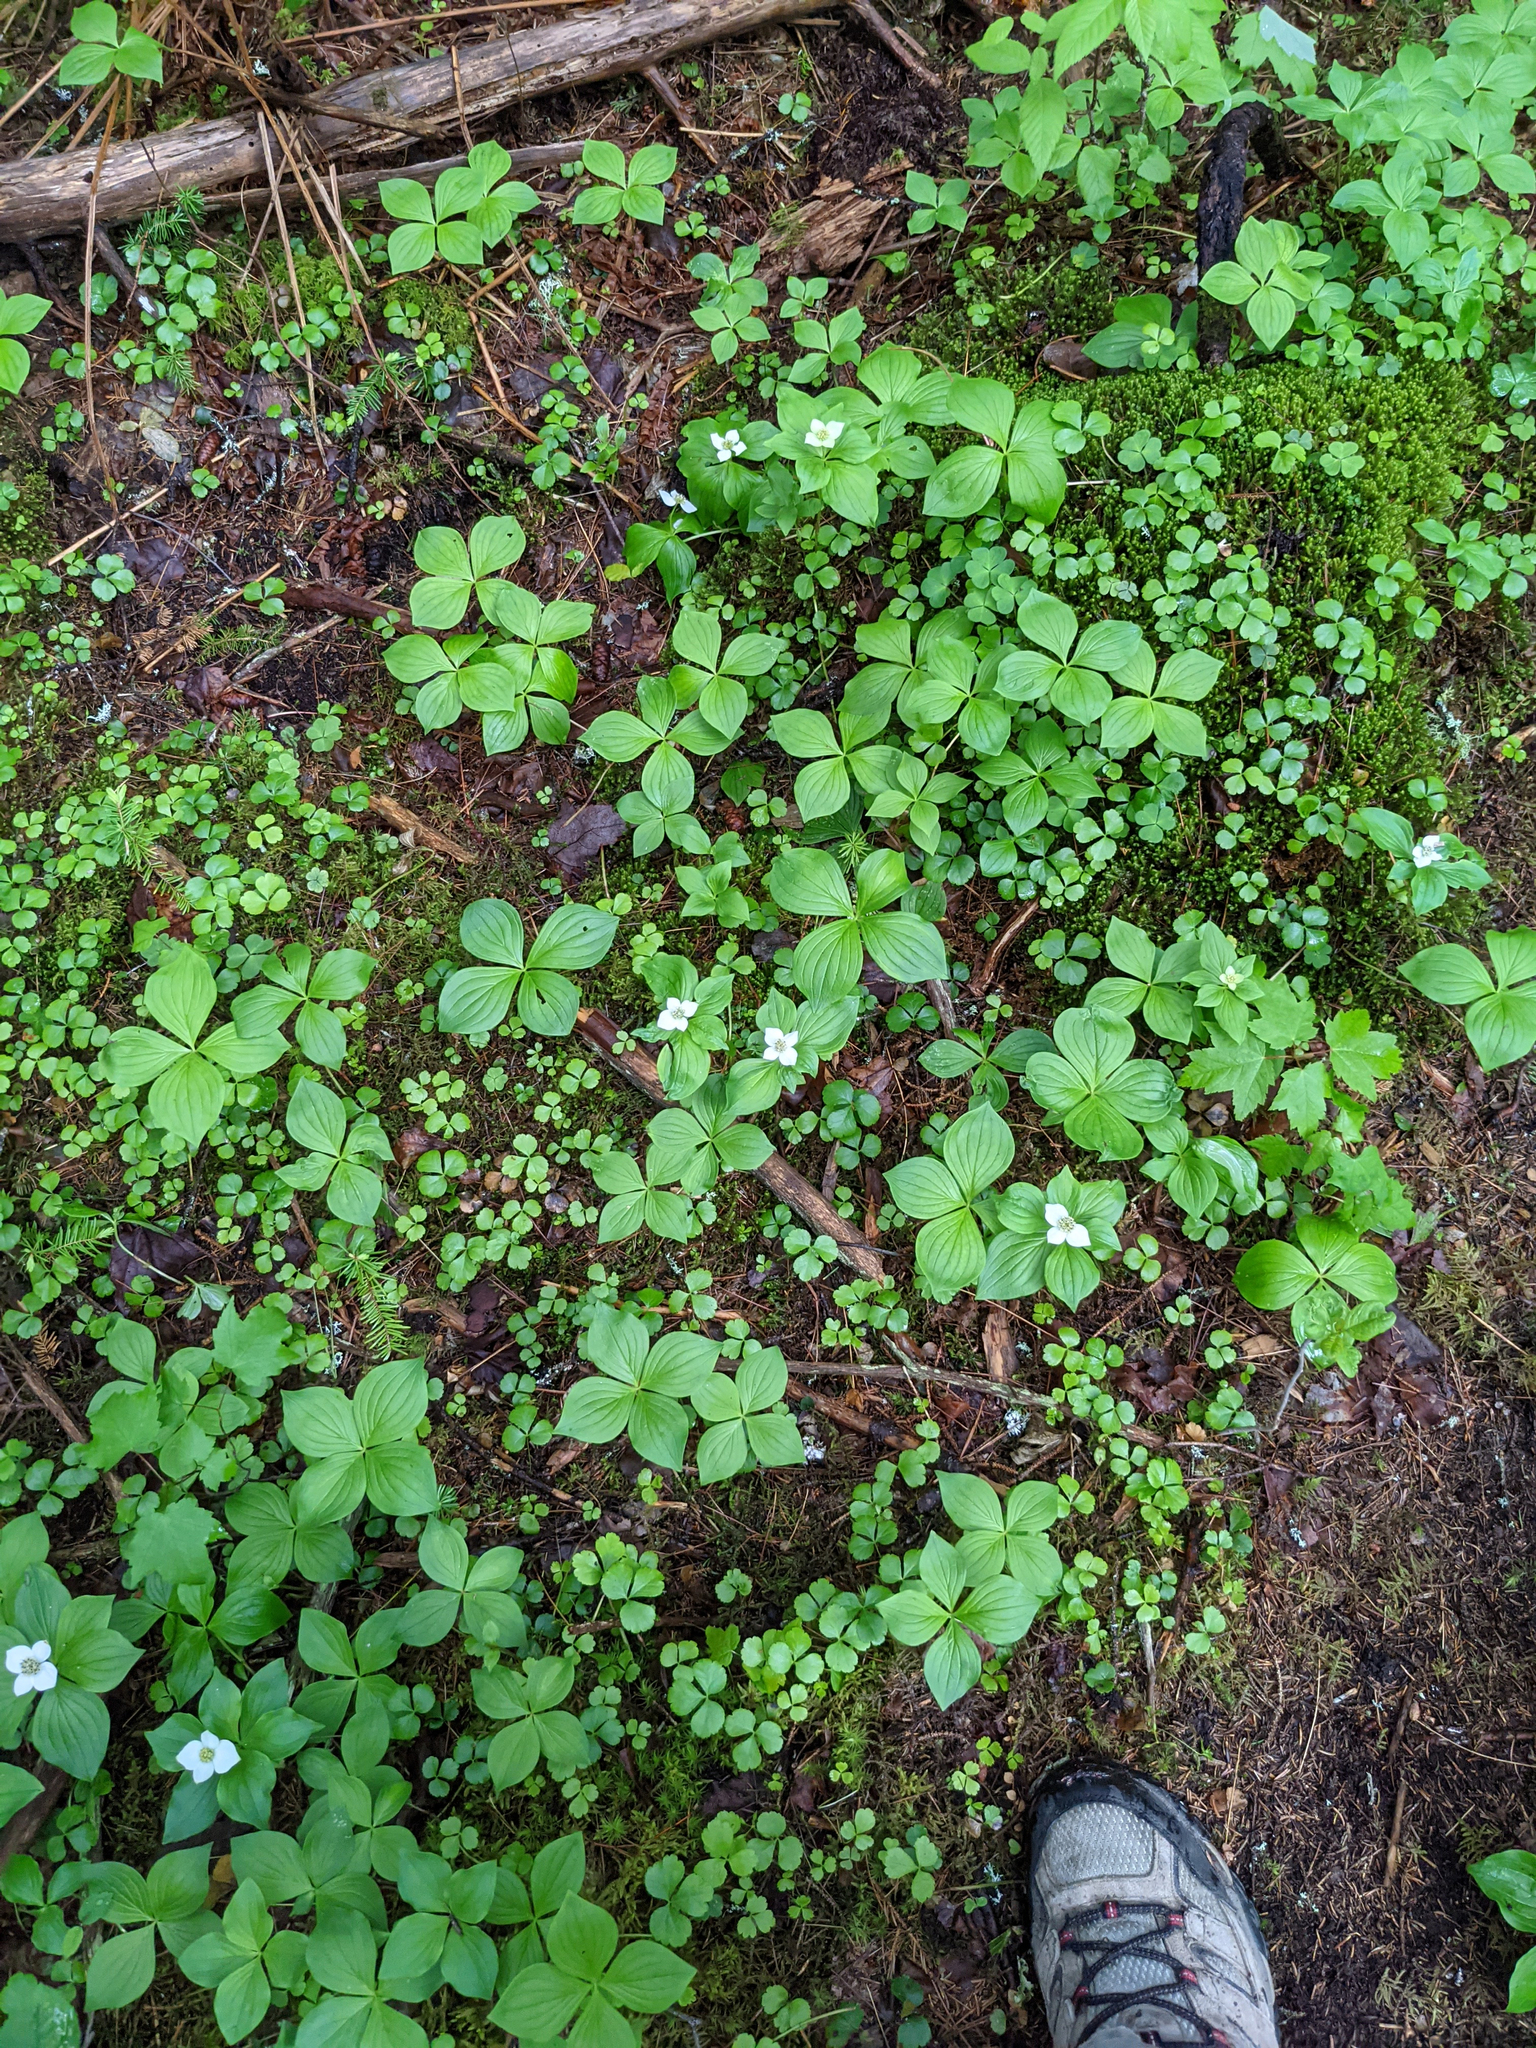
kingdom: Plantae
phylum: Tracheophyta
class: Magnoliopsida
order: Cornales
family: Cornaceae
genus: Cornus
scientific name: Cornus canadensis
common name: Creeping dogwood
